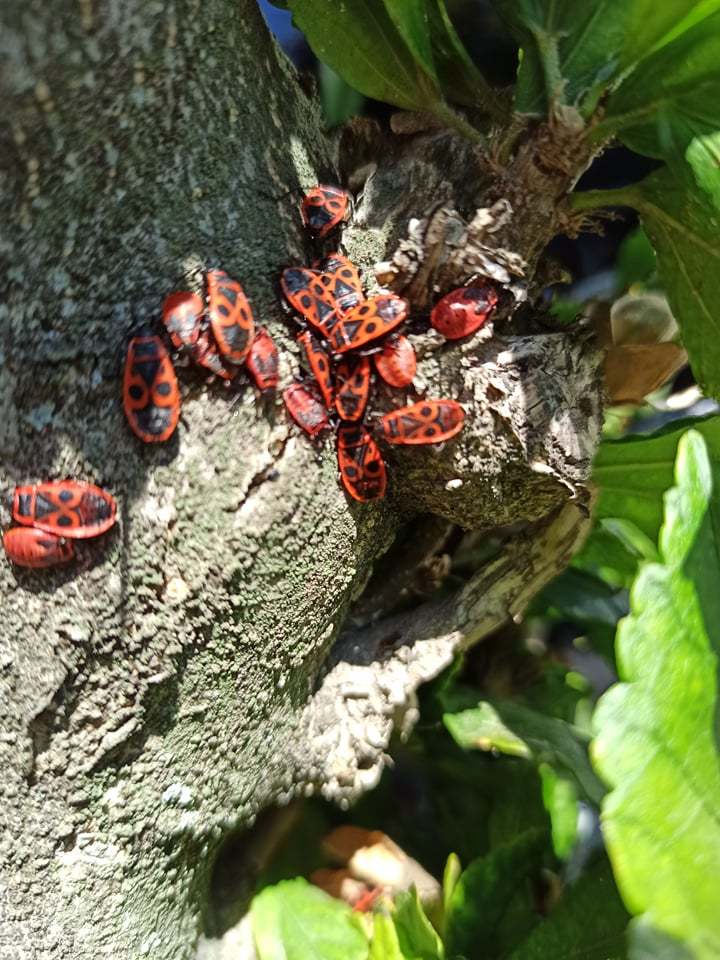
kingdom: Animalia
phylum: Arthropoda
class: Insecta
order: Hemiptera
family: Pyrrhocoridae
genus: Pyrrhocoris
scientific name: Pyrrhocoris apterus
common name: Firebug
